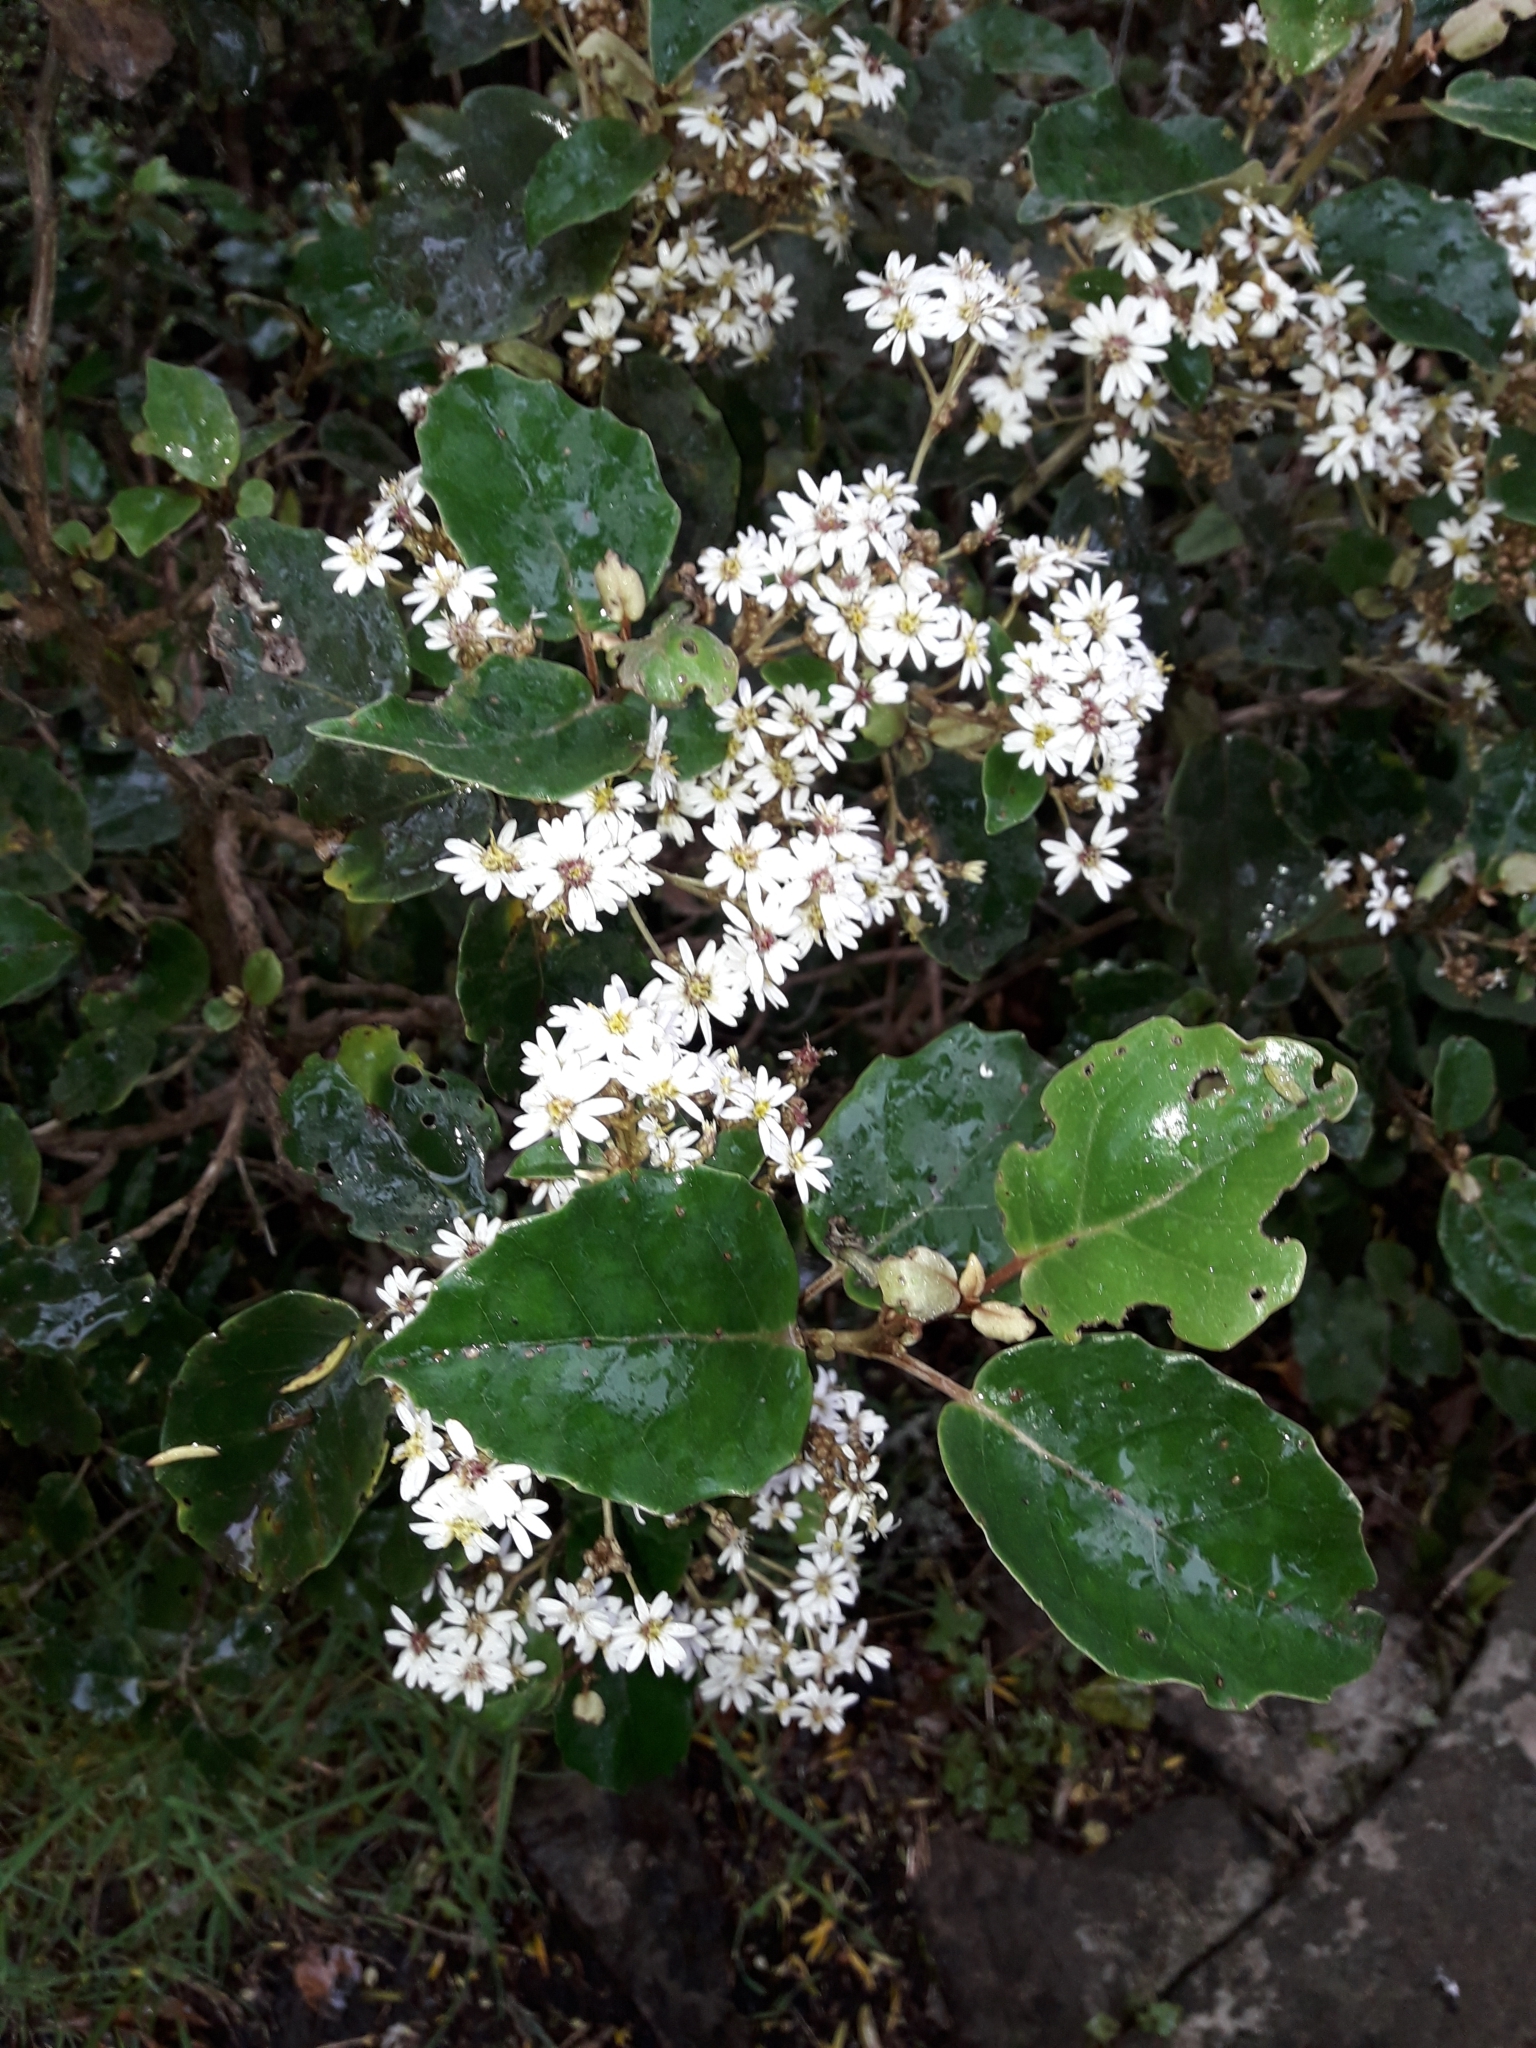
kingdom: Plantae
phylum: Tracheophyta
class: Magnoliopsida
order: Asterales
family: Asteraceae
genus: Olearia
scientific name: Olearia arborescens
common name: Glossy tree daisy
